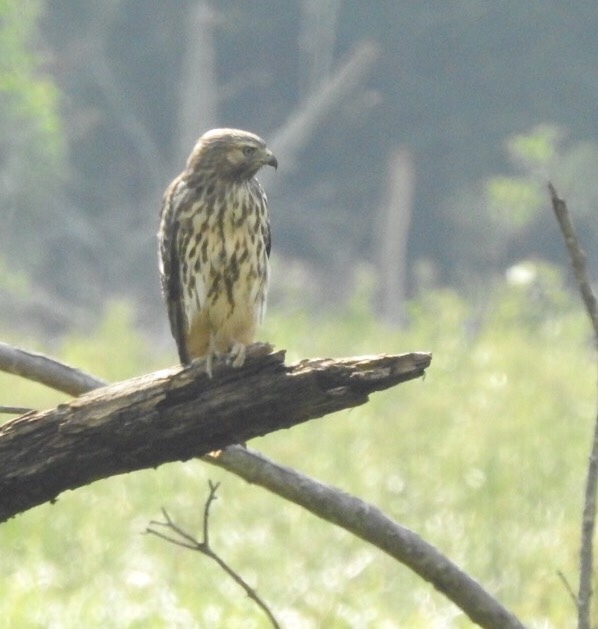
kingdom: Animalia
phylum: Chordata
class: Aves
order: Accipitriformes
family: Accipitridae
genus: Buteo
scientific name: Buteo lineatus
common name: Red-shouldered hawk
